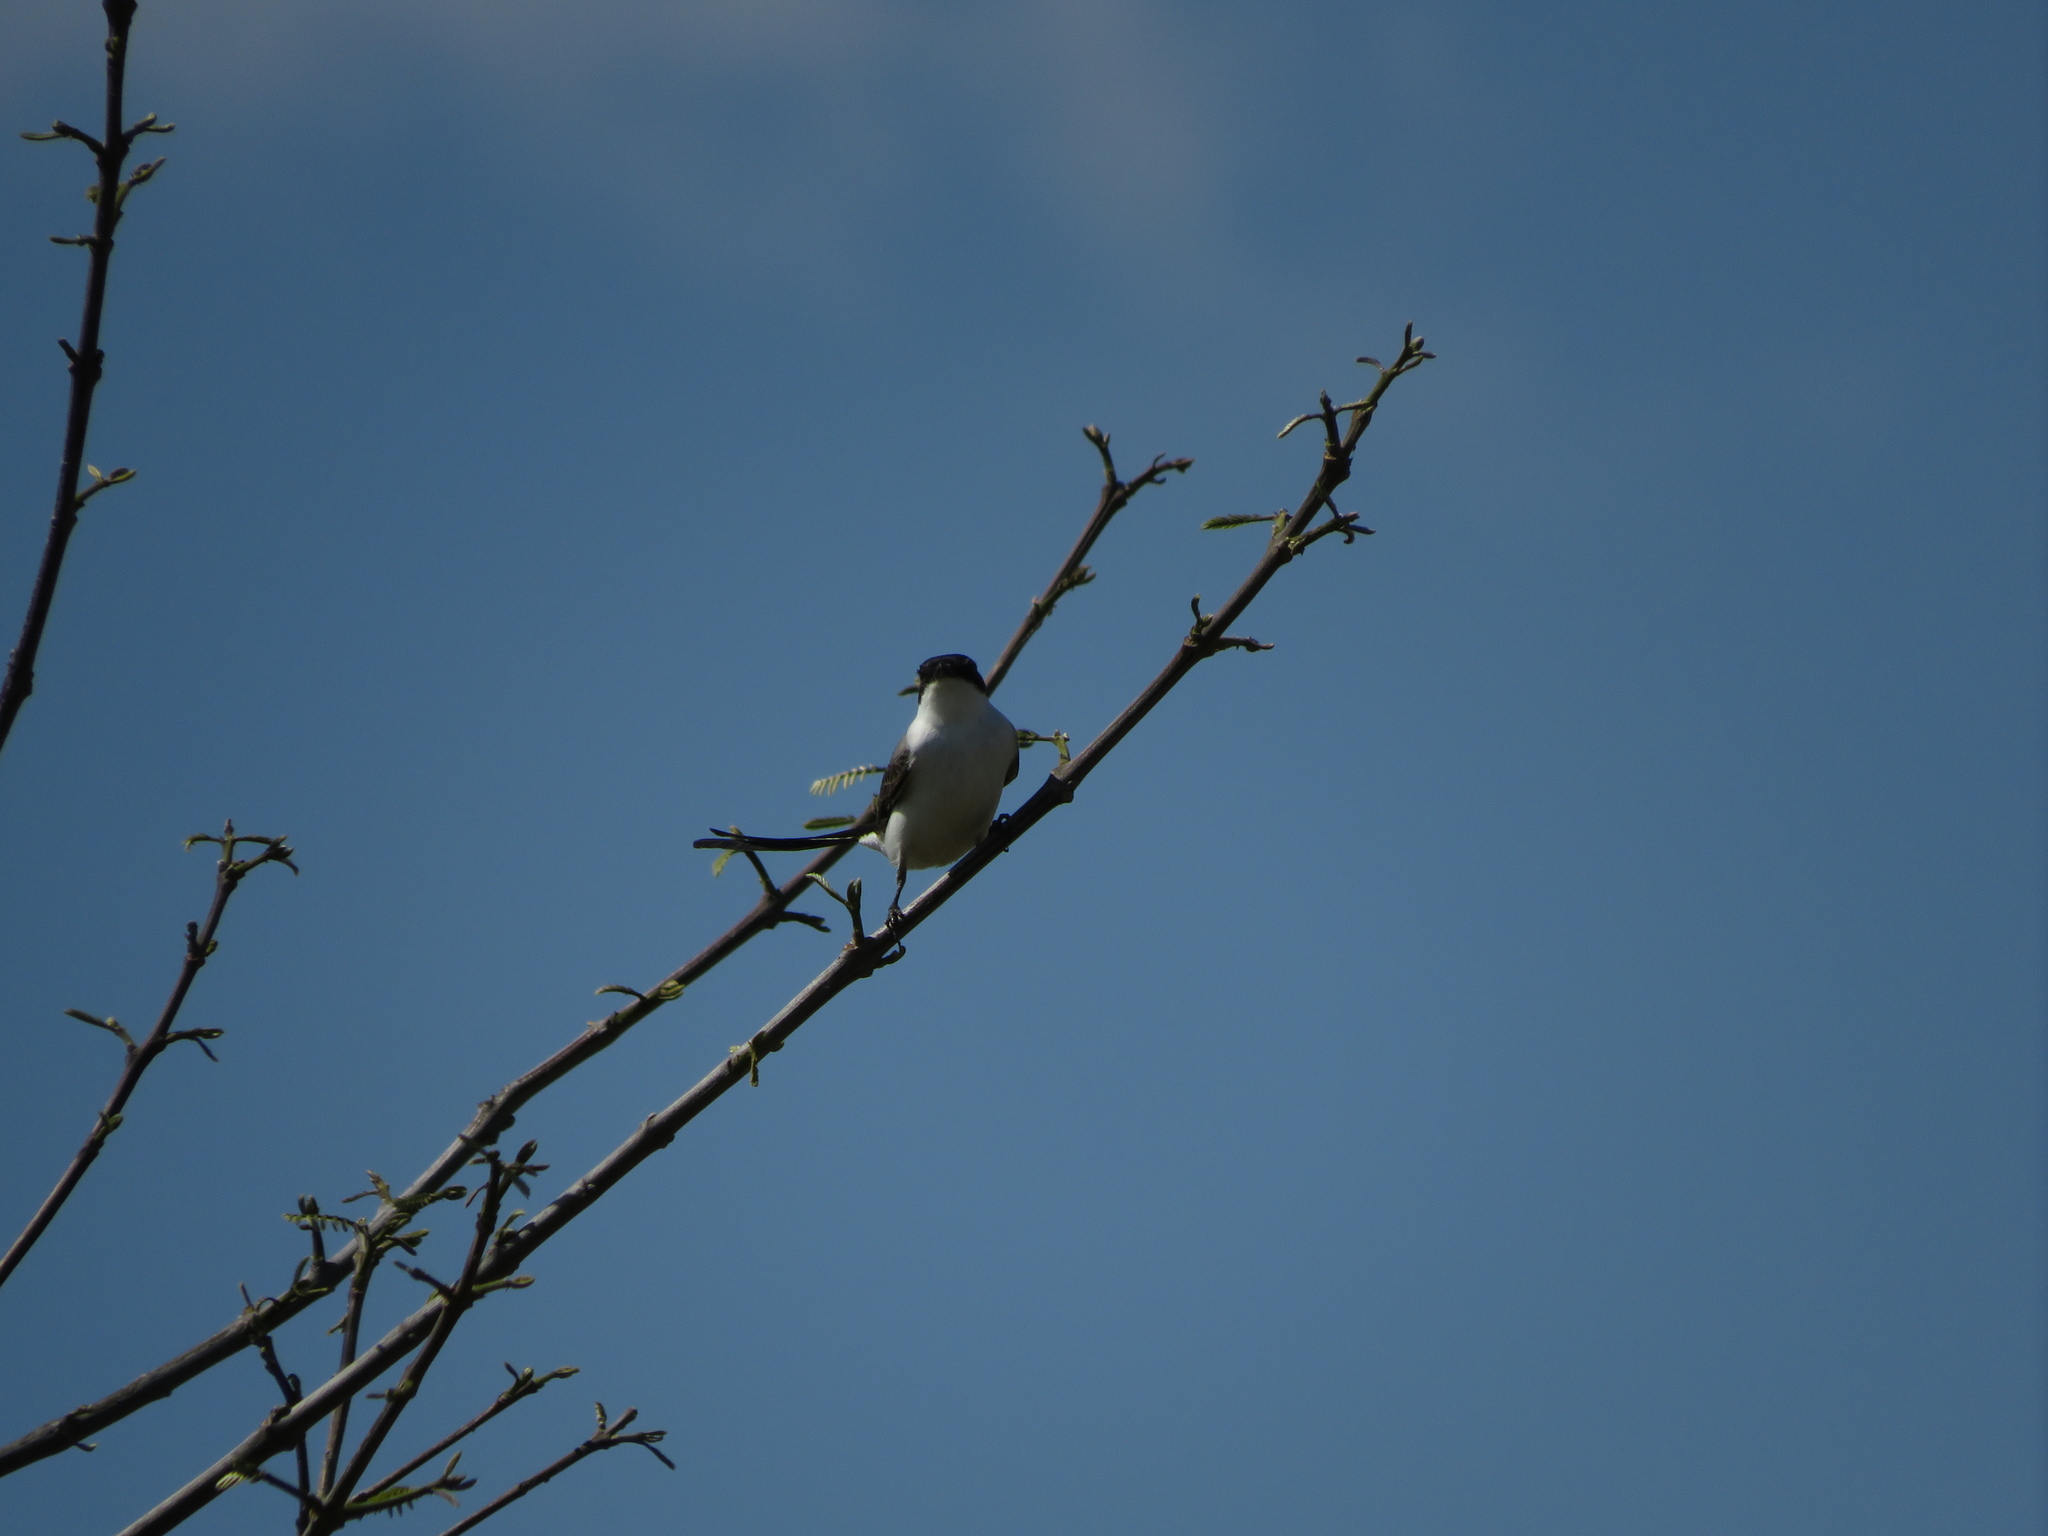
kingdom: Animalia
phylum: Chordata
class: Aves
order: Passeriformes
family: Tyrannidae
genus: Tyrannus
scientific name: Tyrannus savana
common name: Fork-tailed flycatcher
